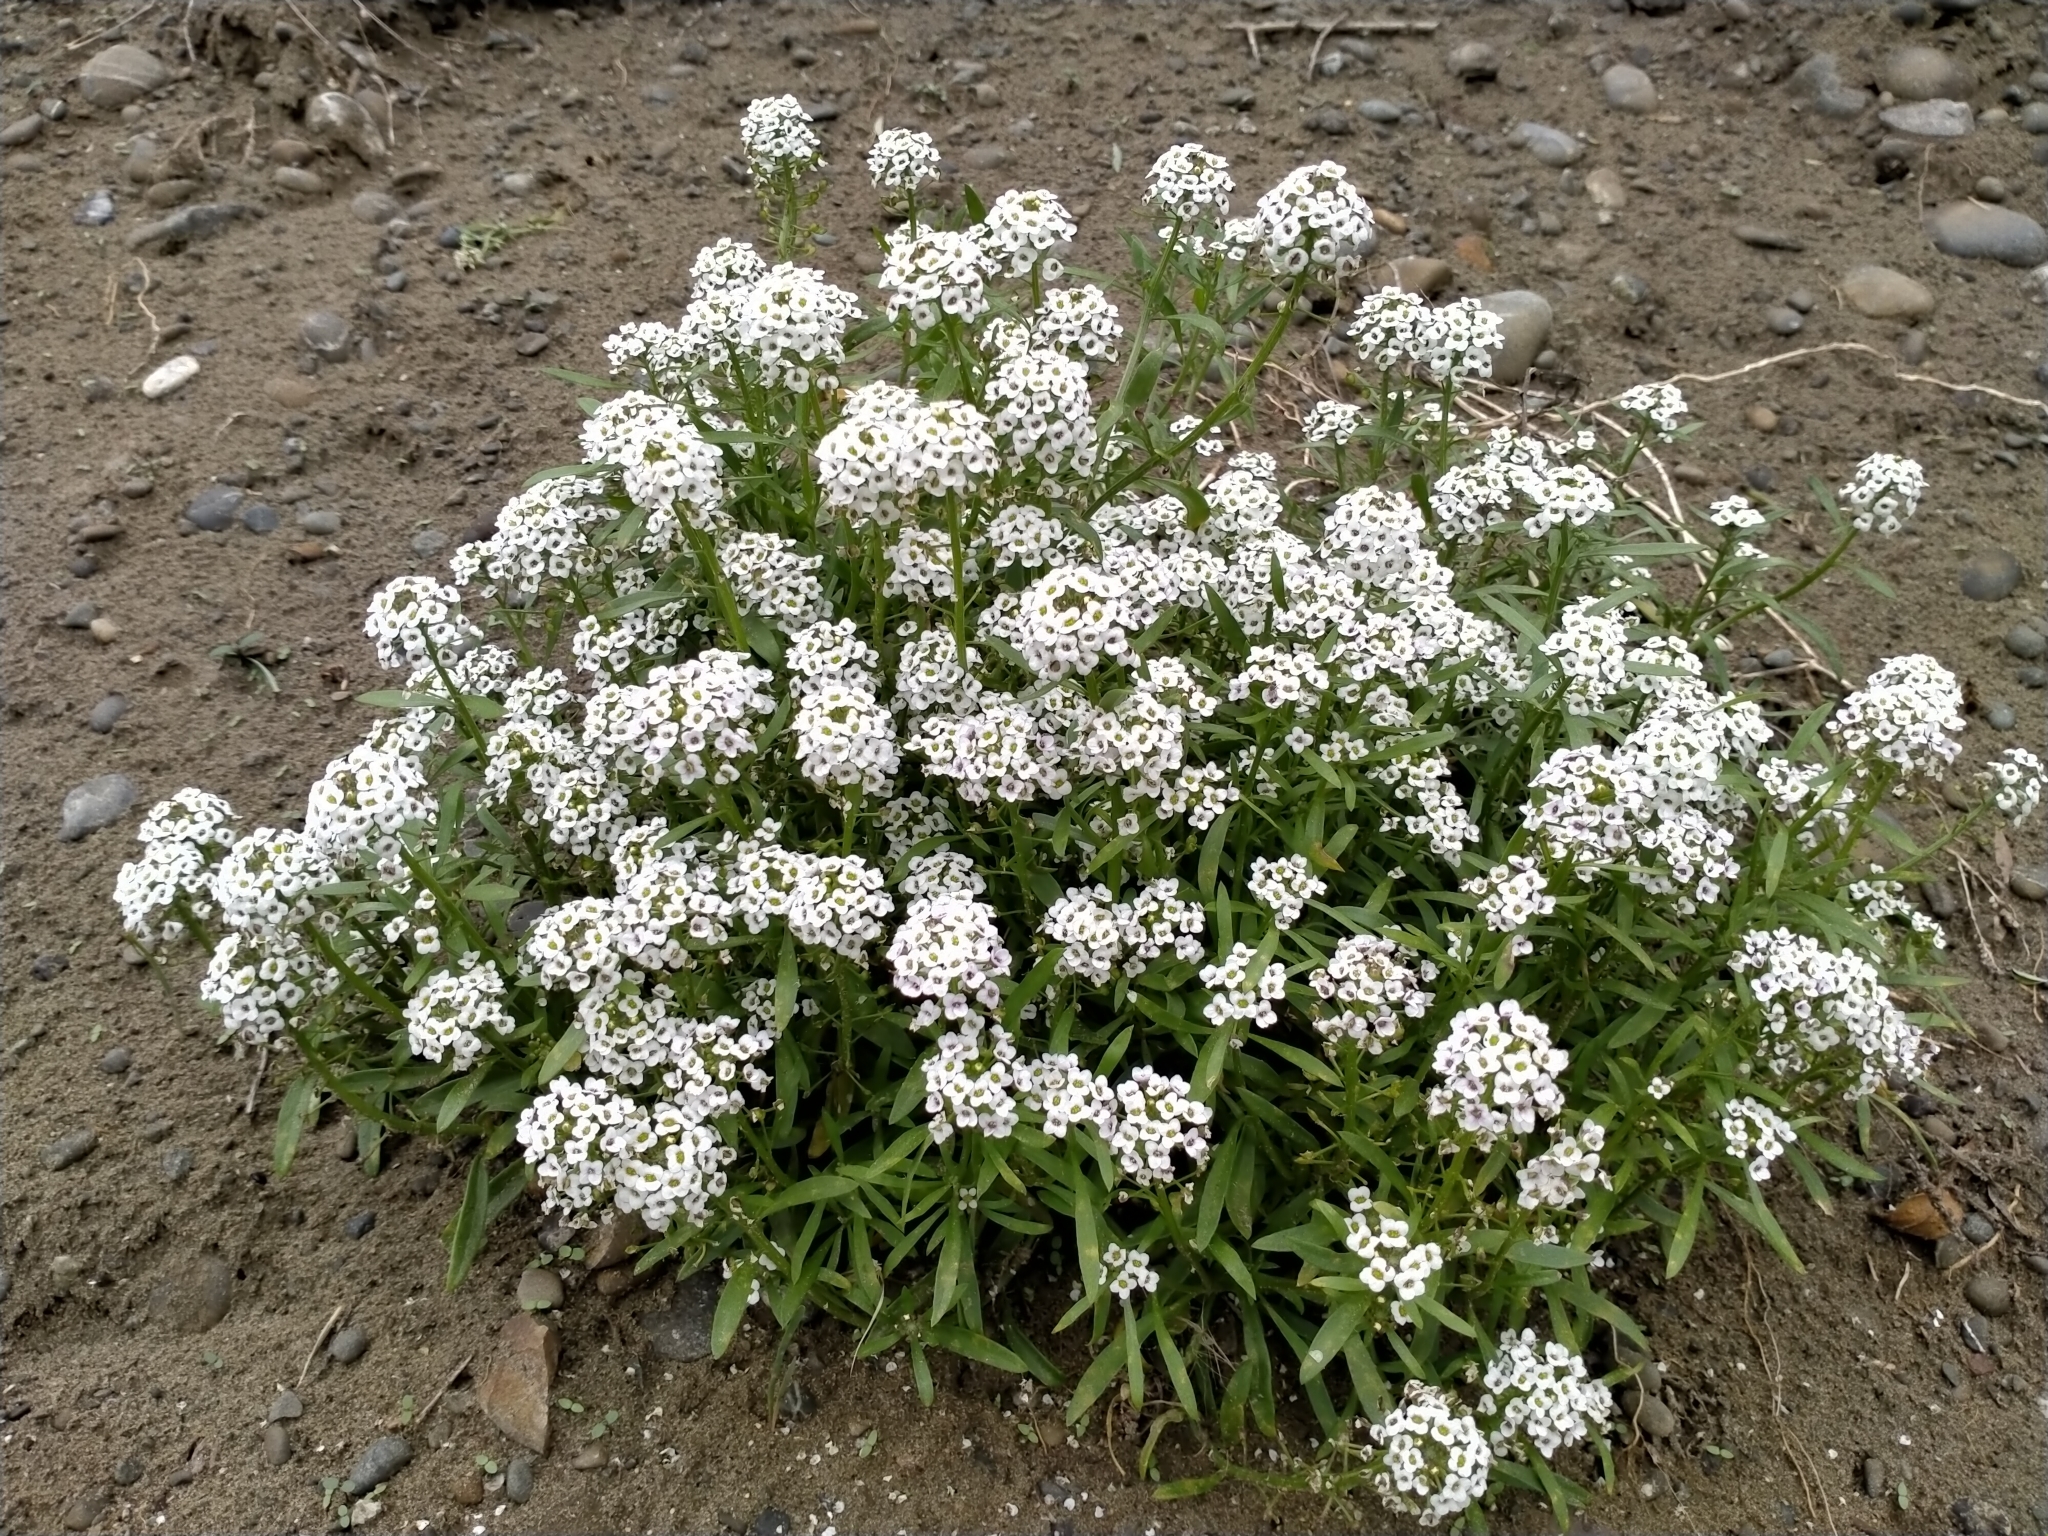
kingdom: Plantae
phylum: Tracheophyta
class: Magnoliopsida
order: Brassicales
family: Brassicaceae
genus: Lobularia
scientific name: Lobularia maritima
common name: Sweet alison
